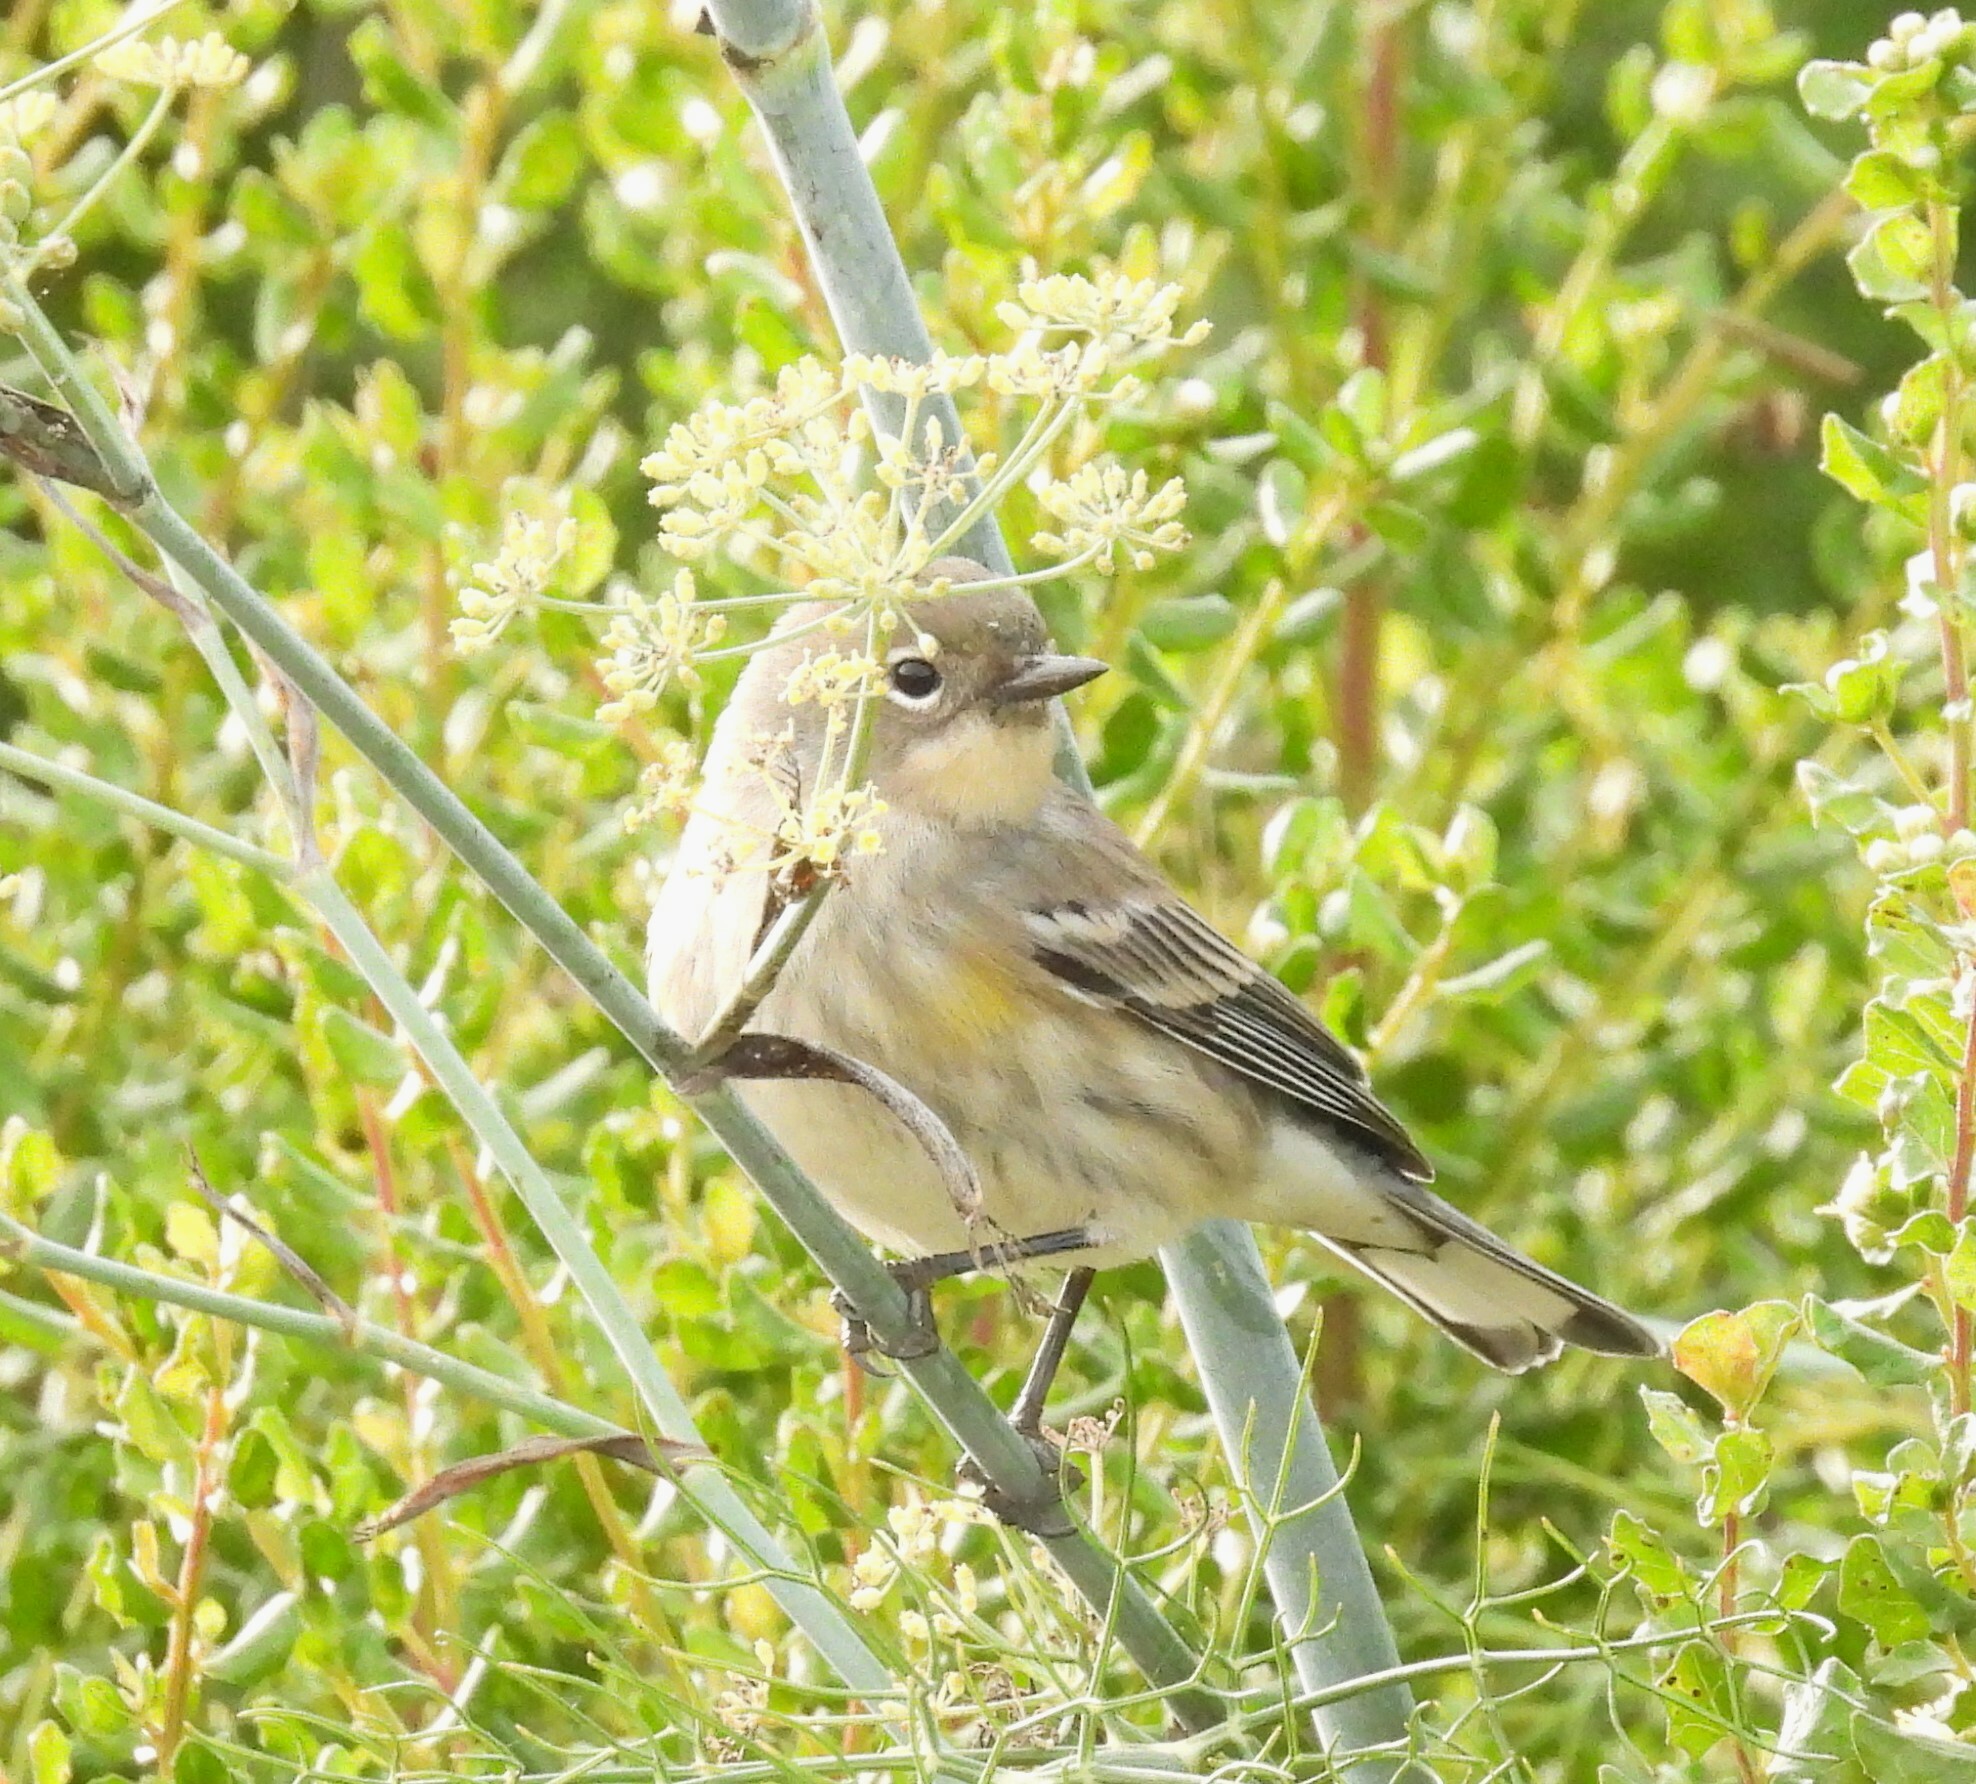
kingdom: Animalia
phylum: Chordata
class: Aves
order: Passeriformes
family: Parulidae
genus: Setophaga
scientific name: Setophaga coronata
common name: Myrtle warbler
